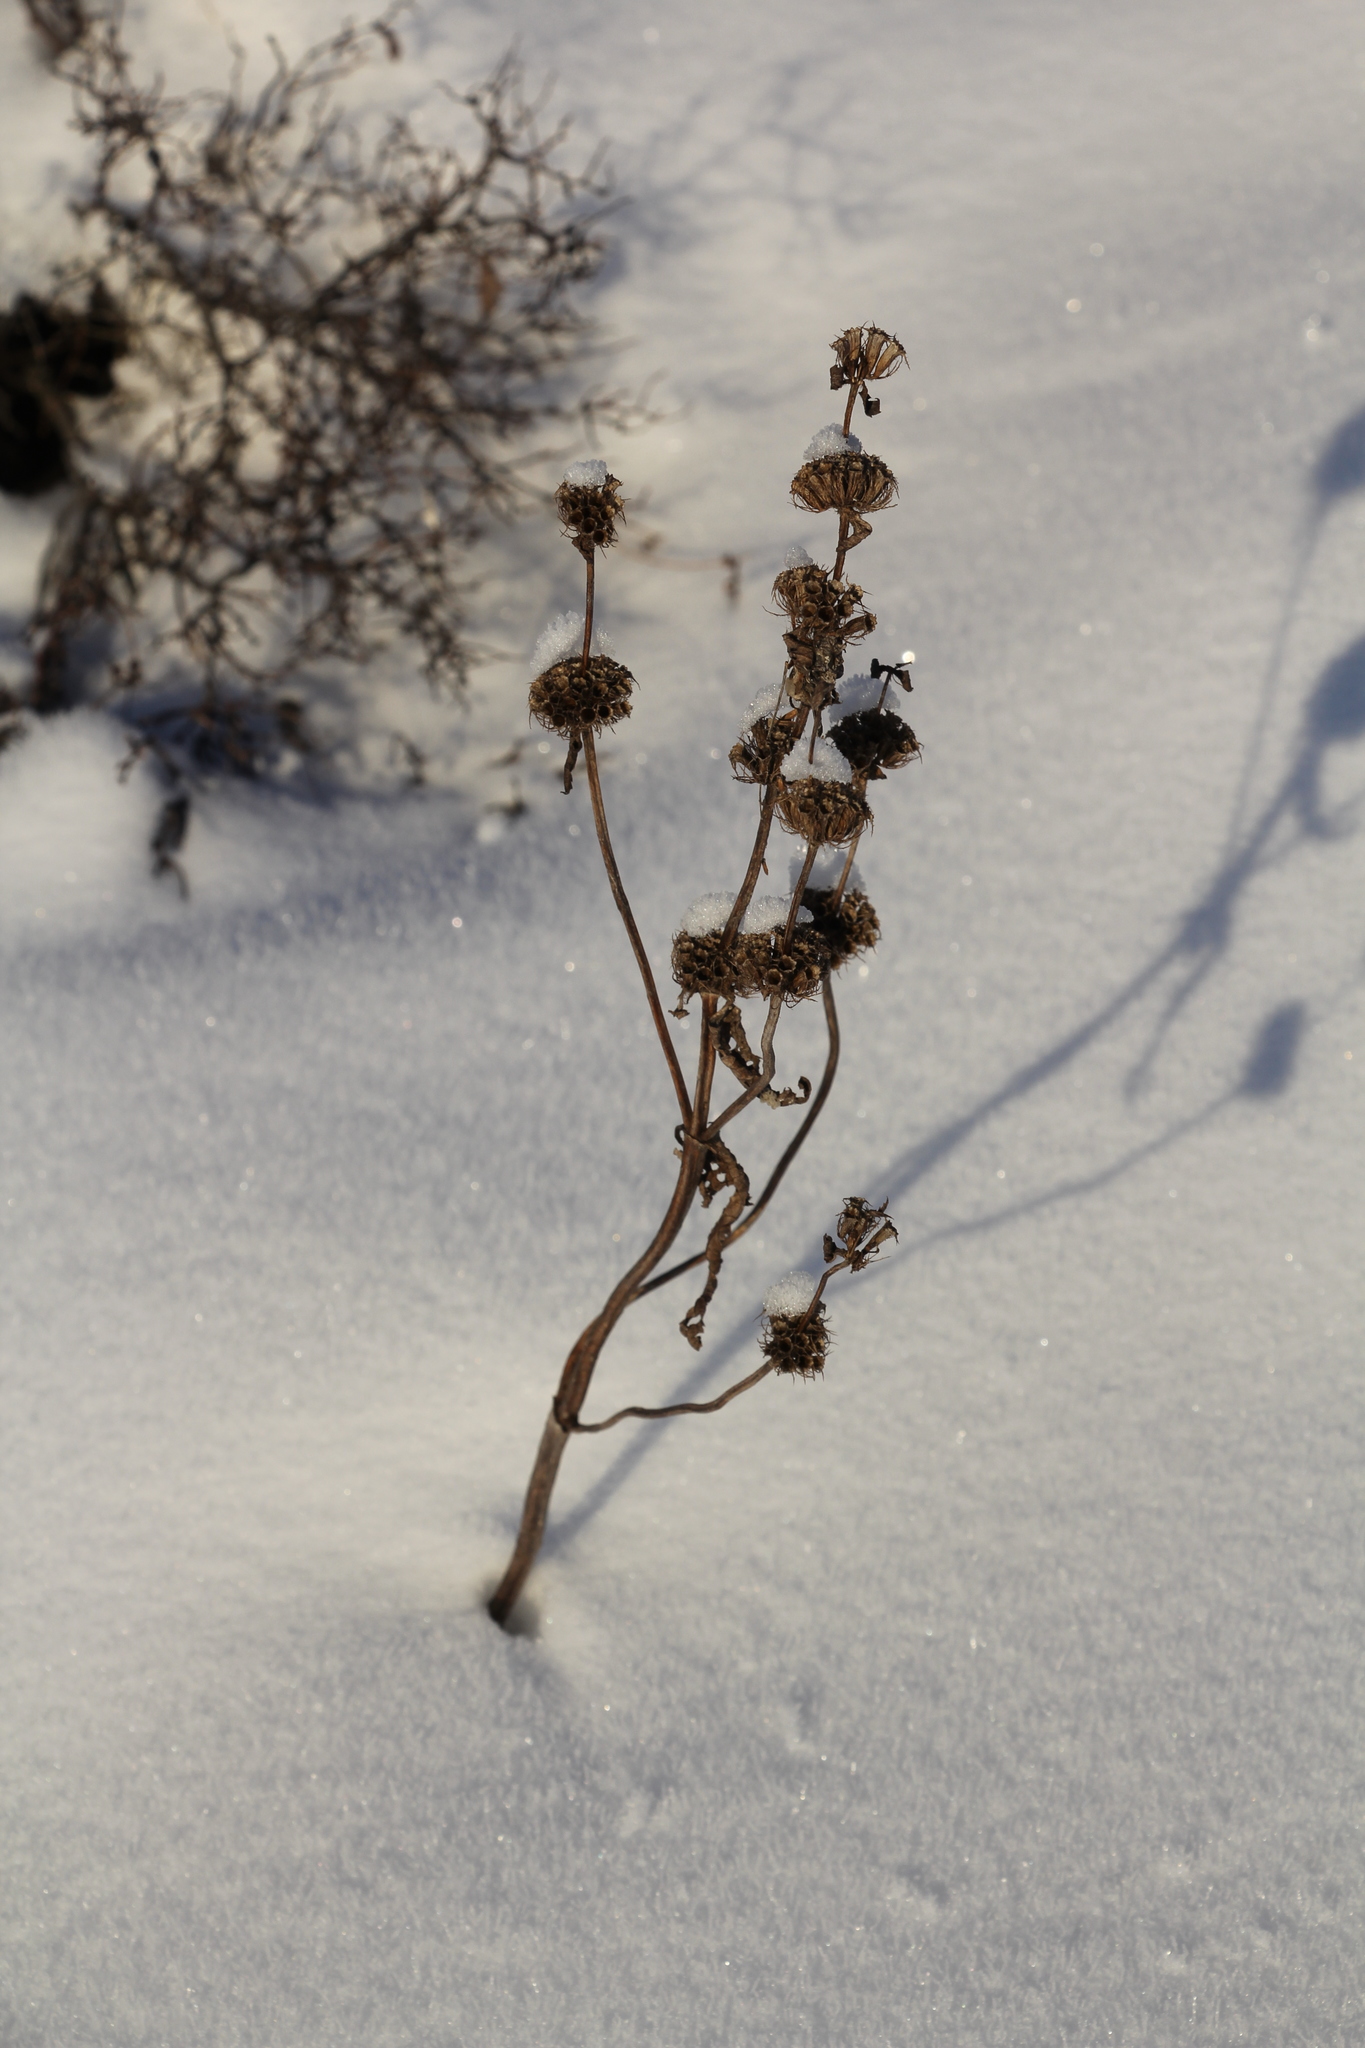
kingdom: Plantae
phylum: Tracheophyta
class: Magnoliopsida
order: Lamiales
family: Lamiaceae
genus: Phlomoides
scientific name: Phlomoides tuberosa
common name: Tuberous jerusalem sage
